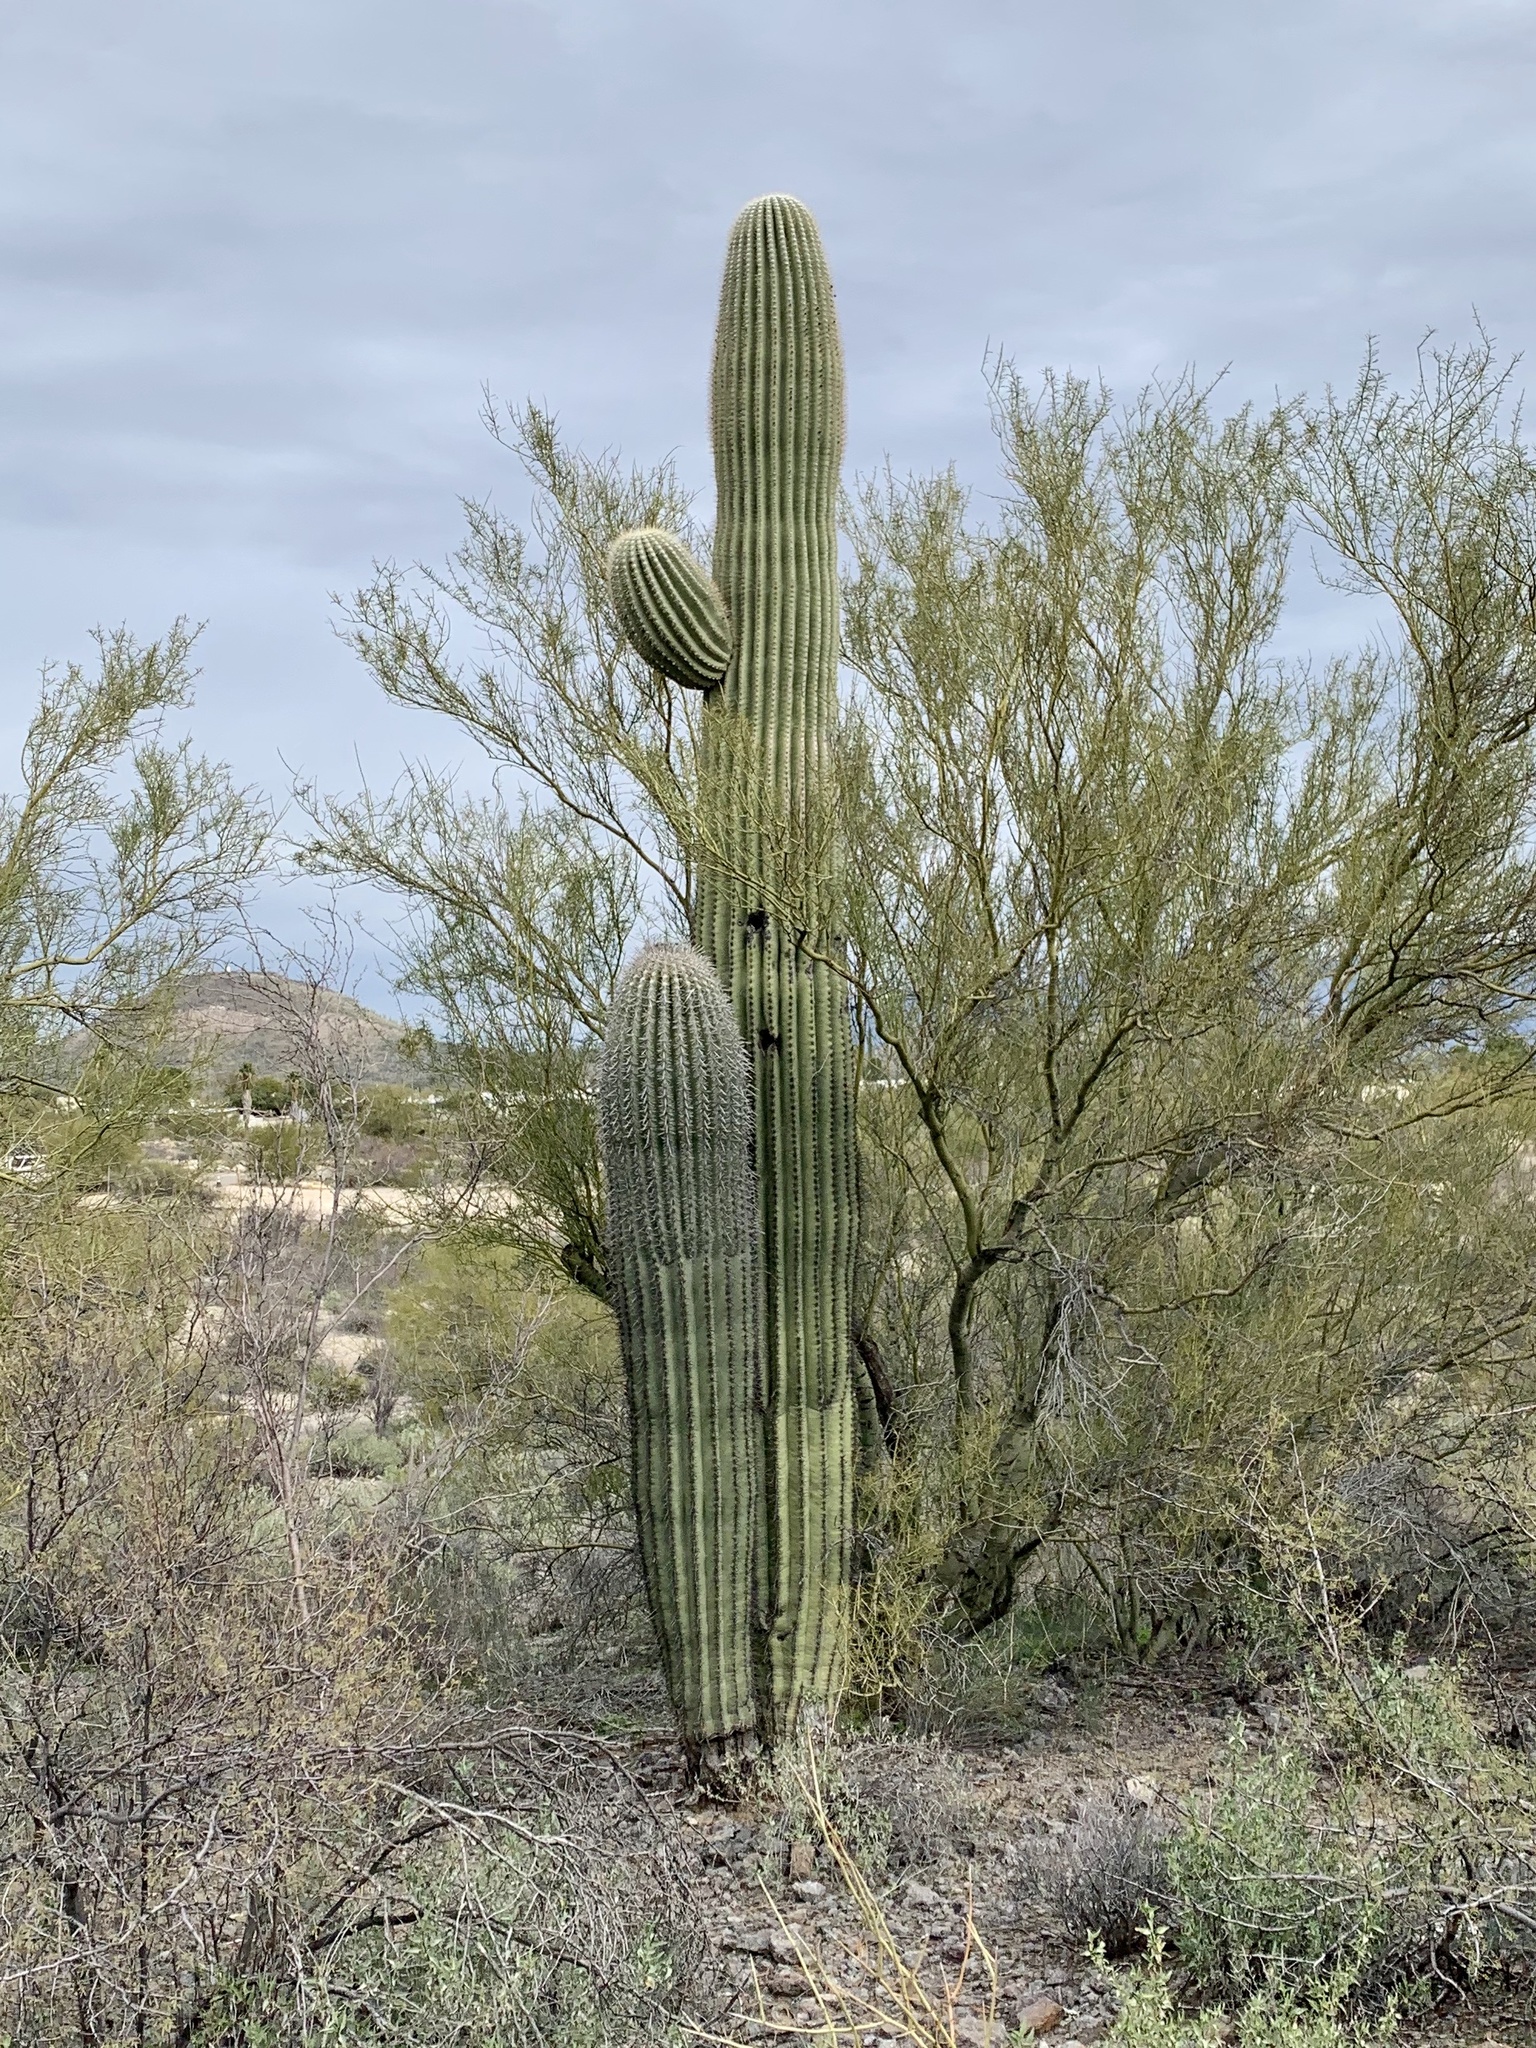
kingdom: Plantae
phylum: Tracheophyta
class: Magnoliopsida
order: Caryophyllales
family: Cactaceae
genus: Carnegiea
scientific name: Carnegiea gigantea
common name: Saguaro
